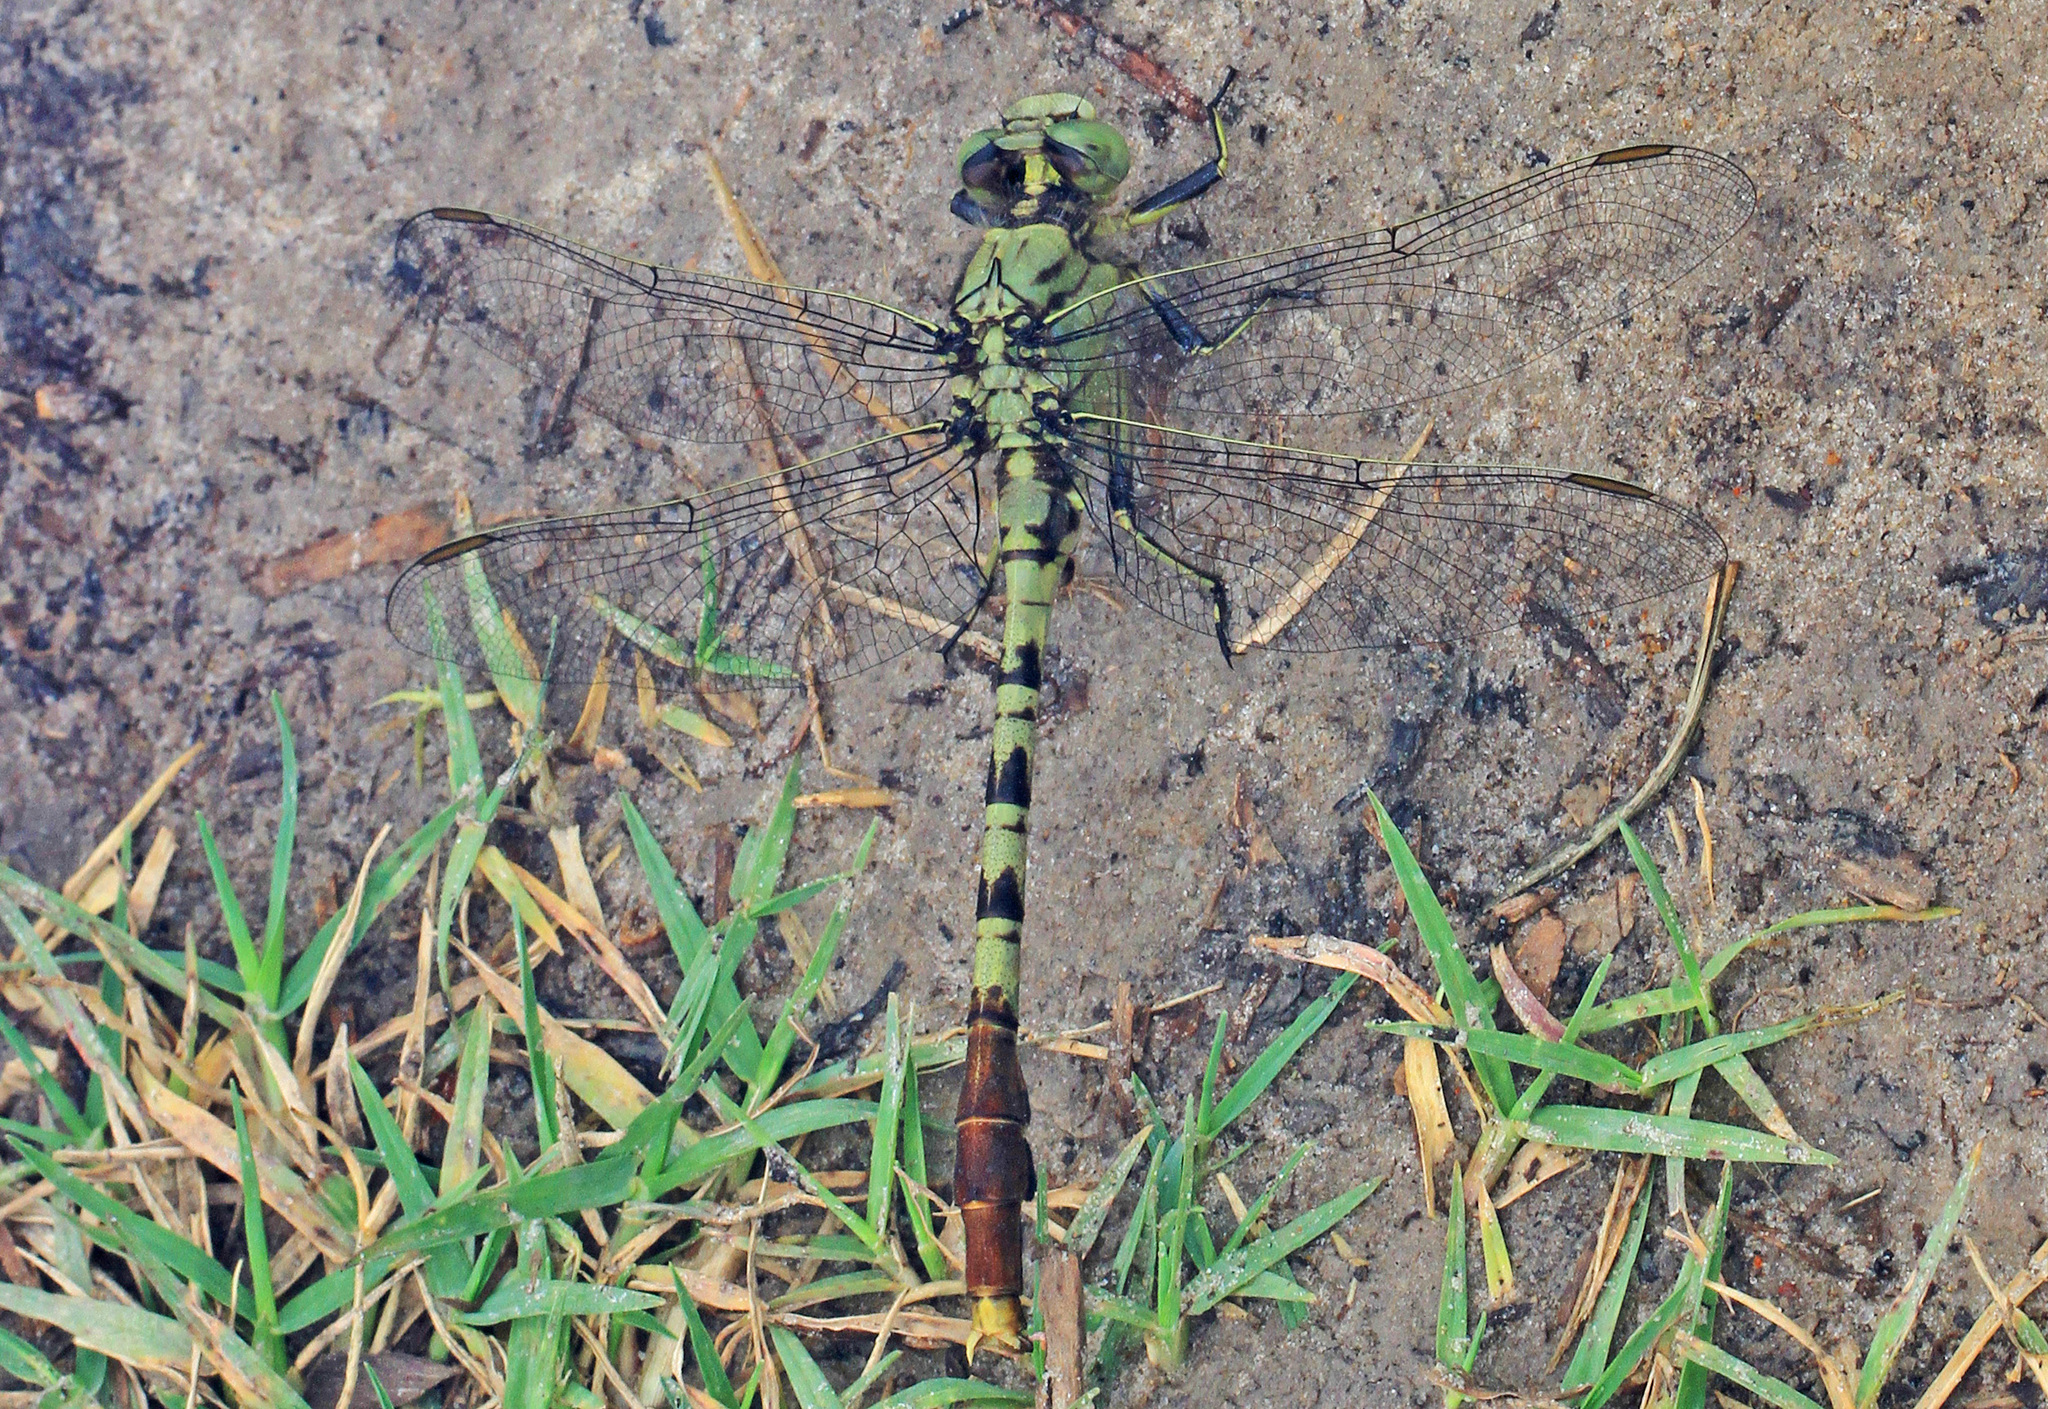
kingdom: Animalia
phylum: Arthropoda
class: Insecta
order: Odonata
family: Gomphidae
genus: Arigomphus
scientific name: Arigomphus submedianus
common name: Jade clubtail
